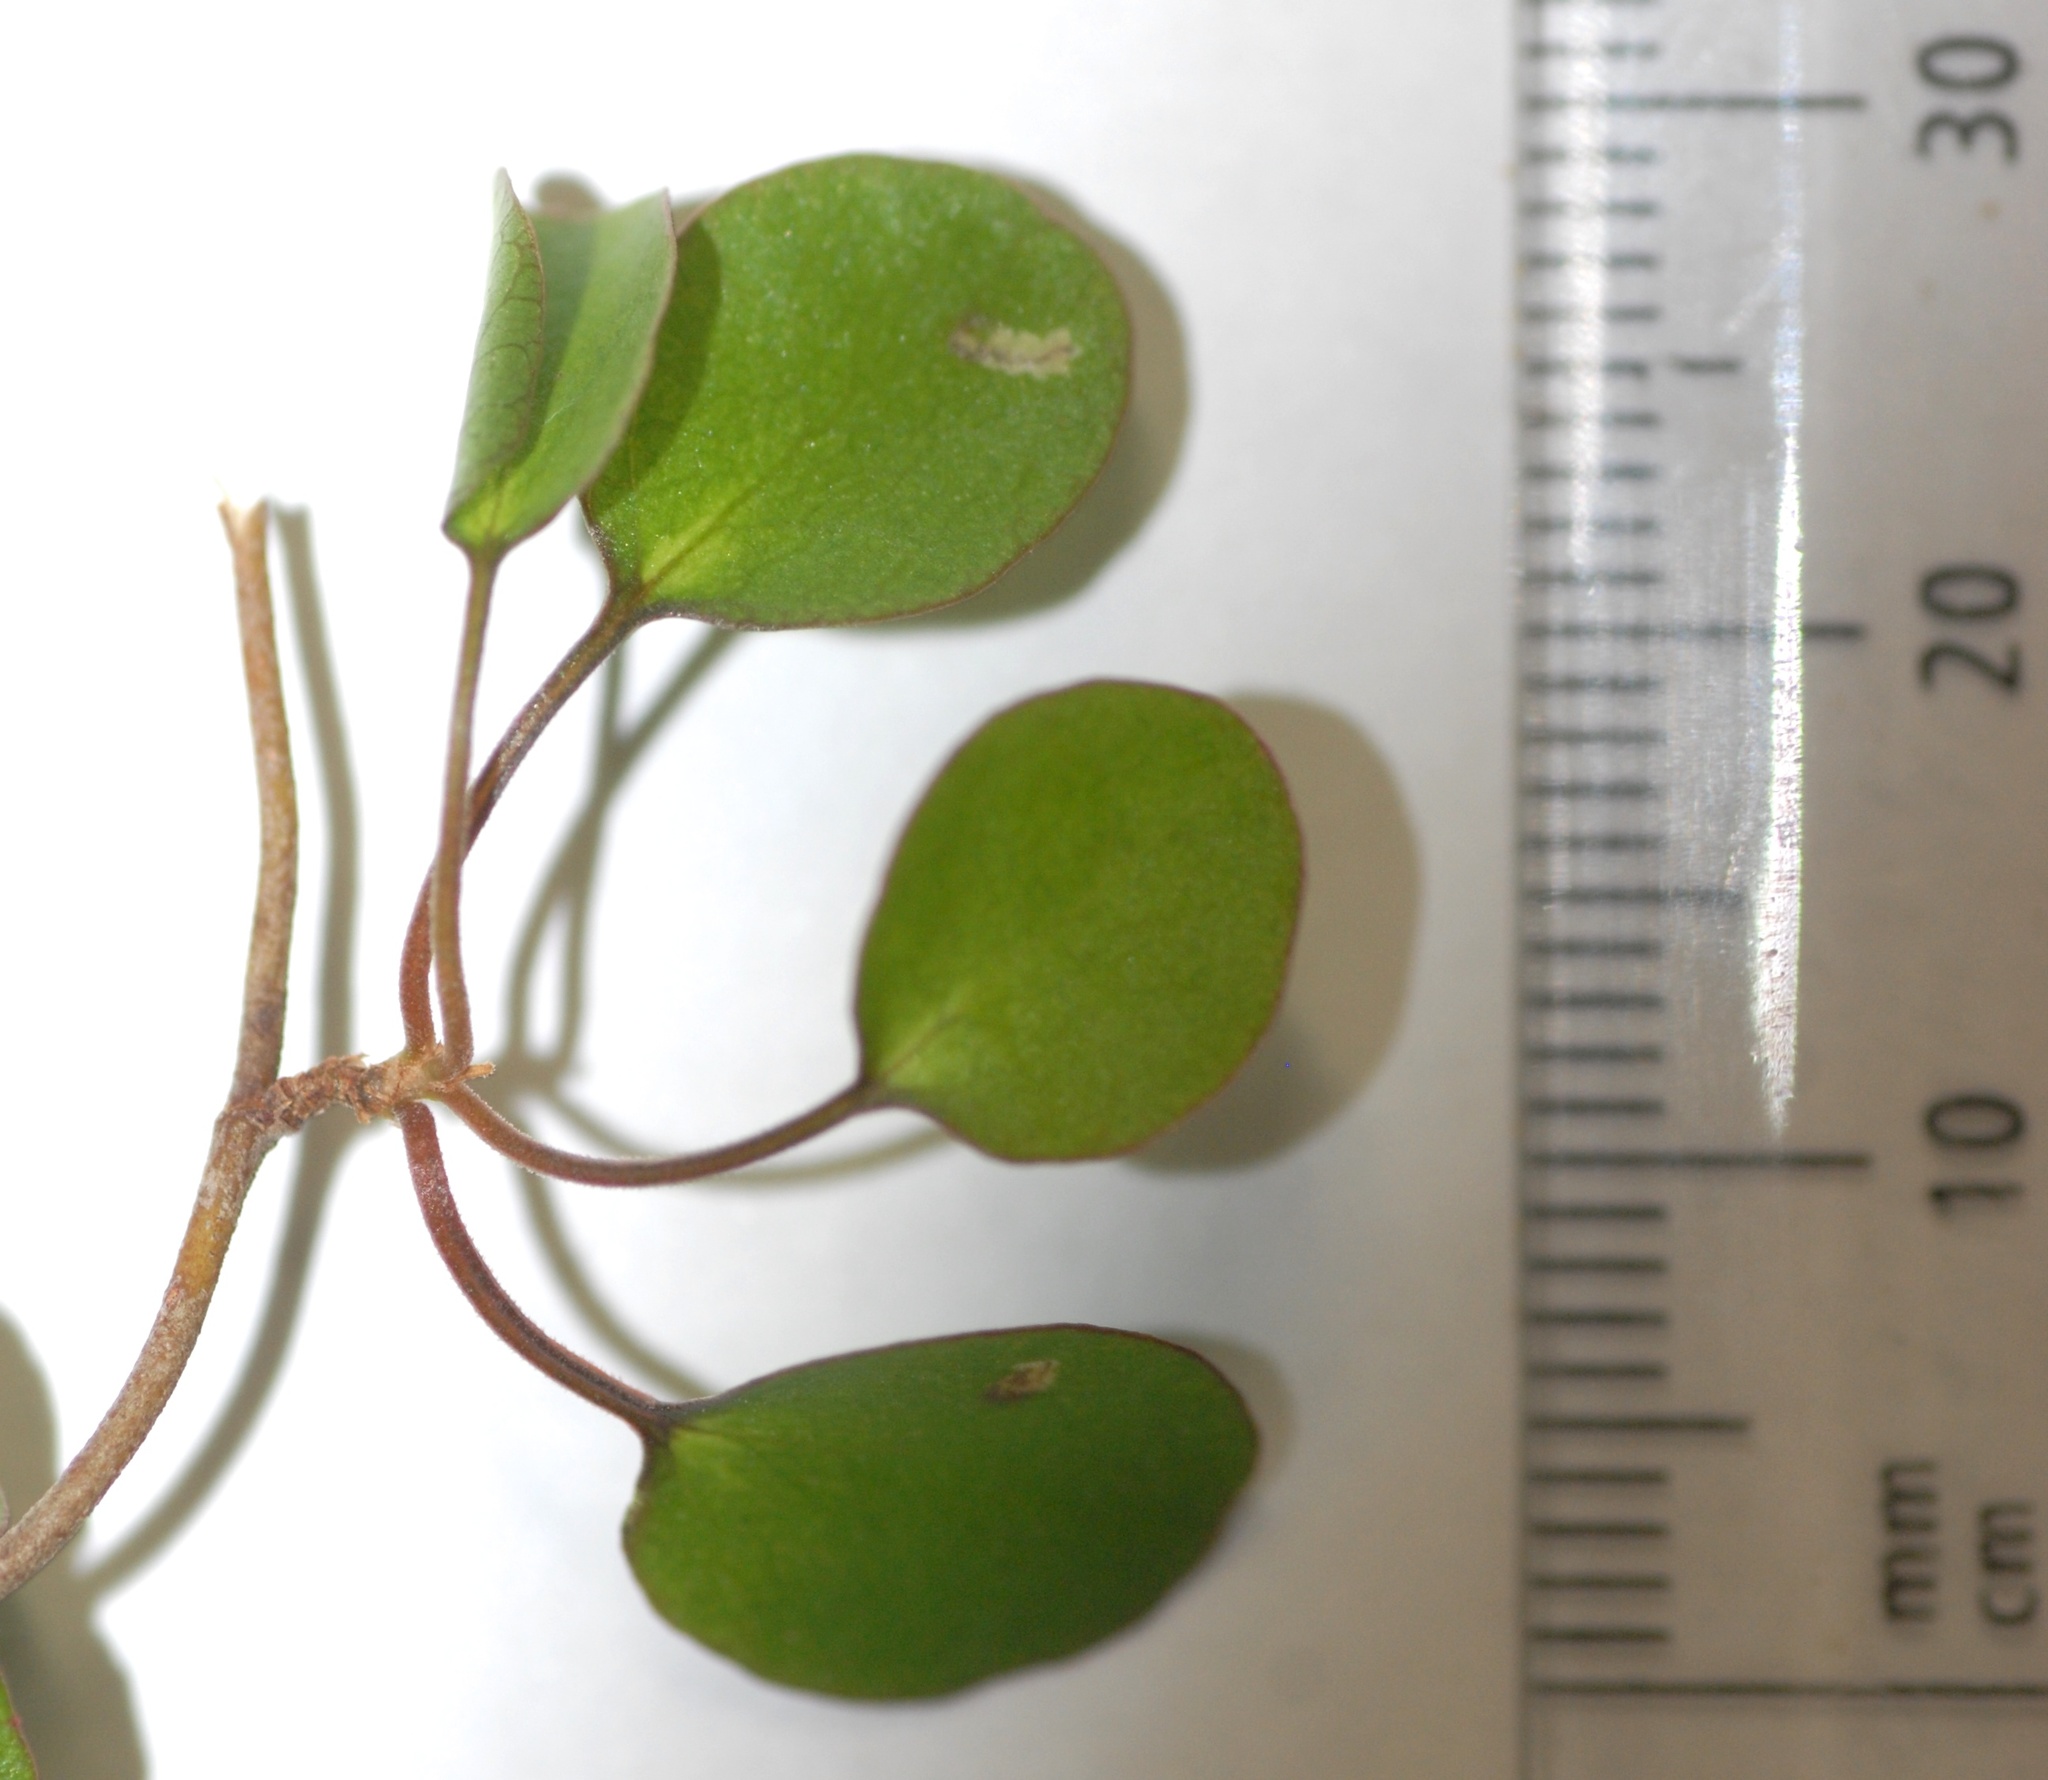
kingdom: Plantae
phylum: Tracheophyta
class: Magnoliopsida
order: Caryophyllales
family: Polygonaceae
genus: Muehlenbeckia
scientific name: Muehlenbeckia complexa
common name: Wireplant
